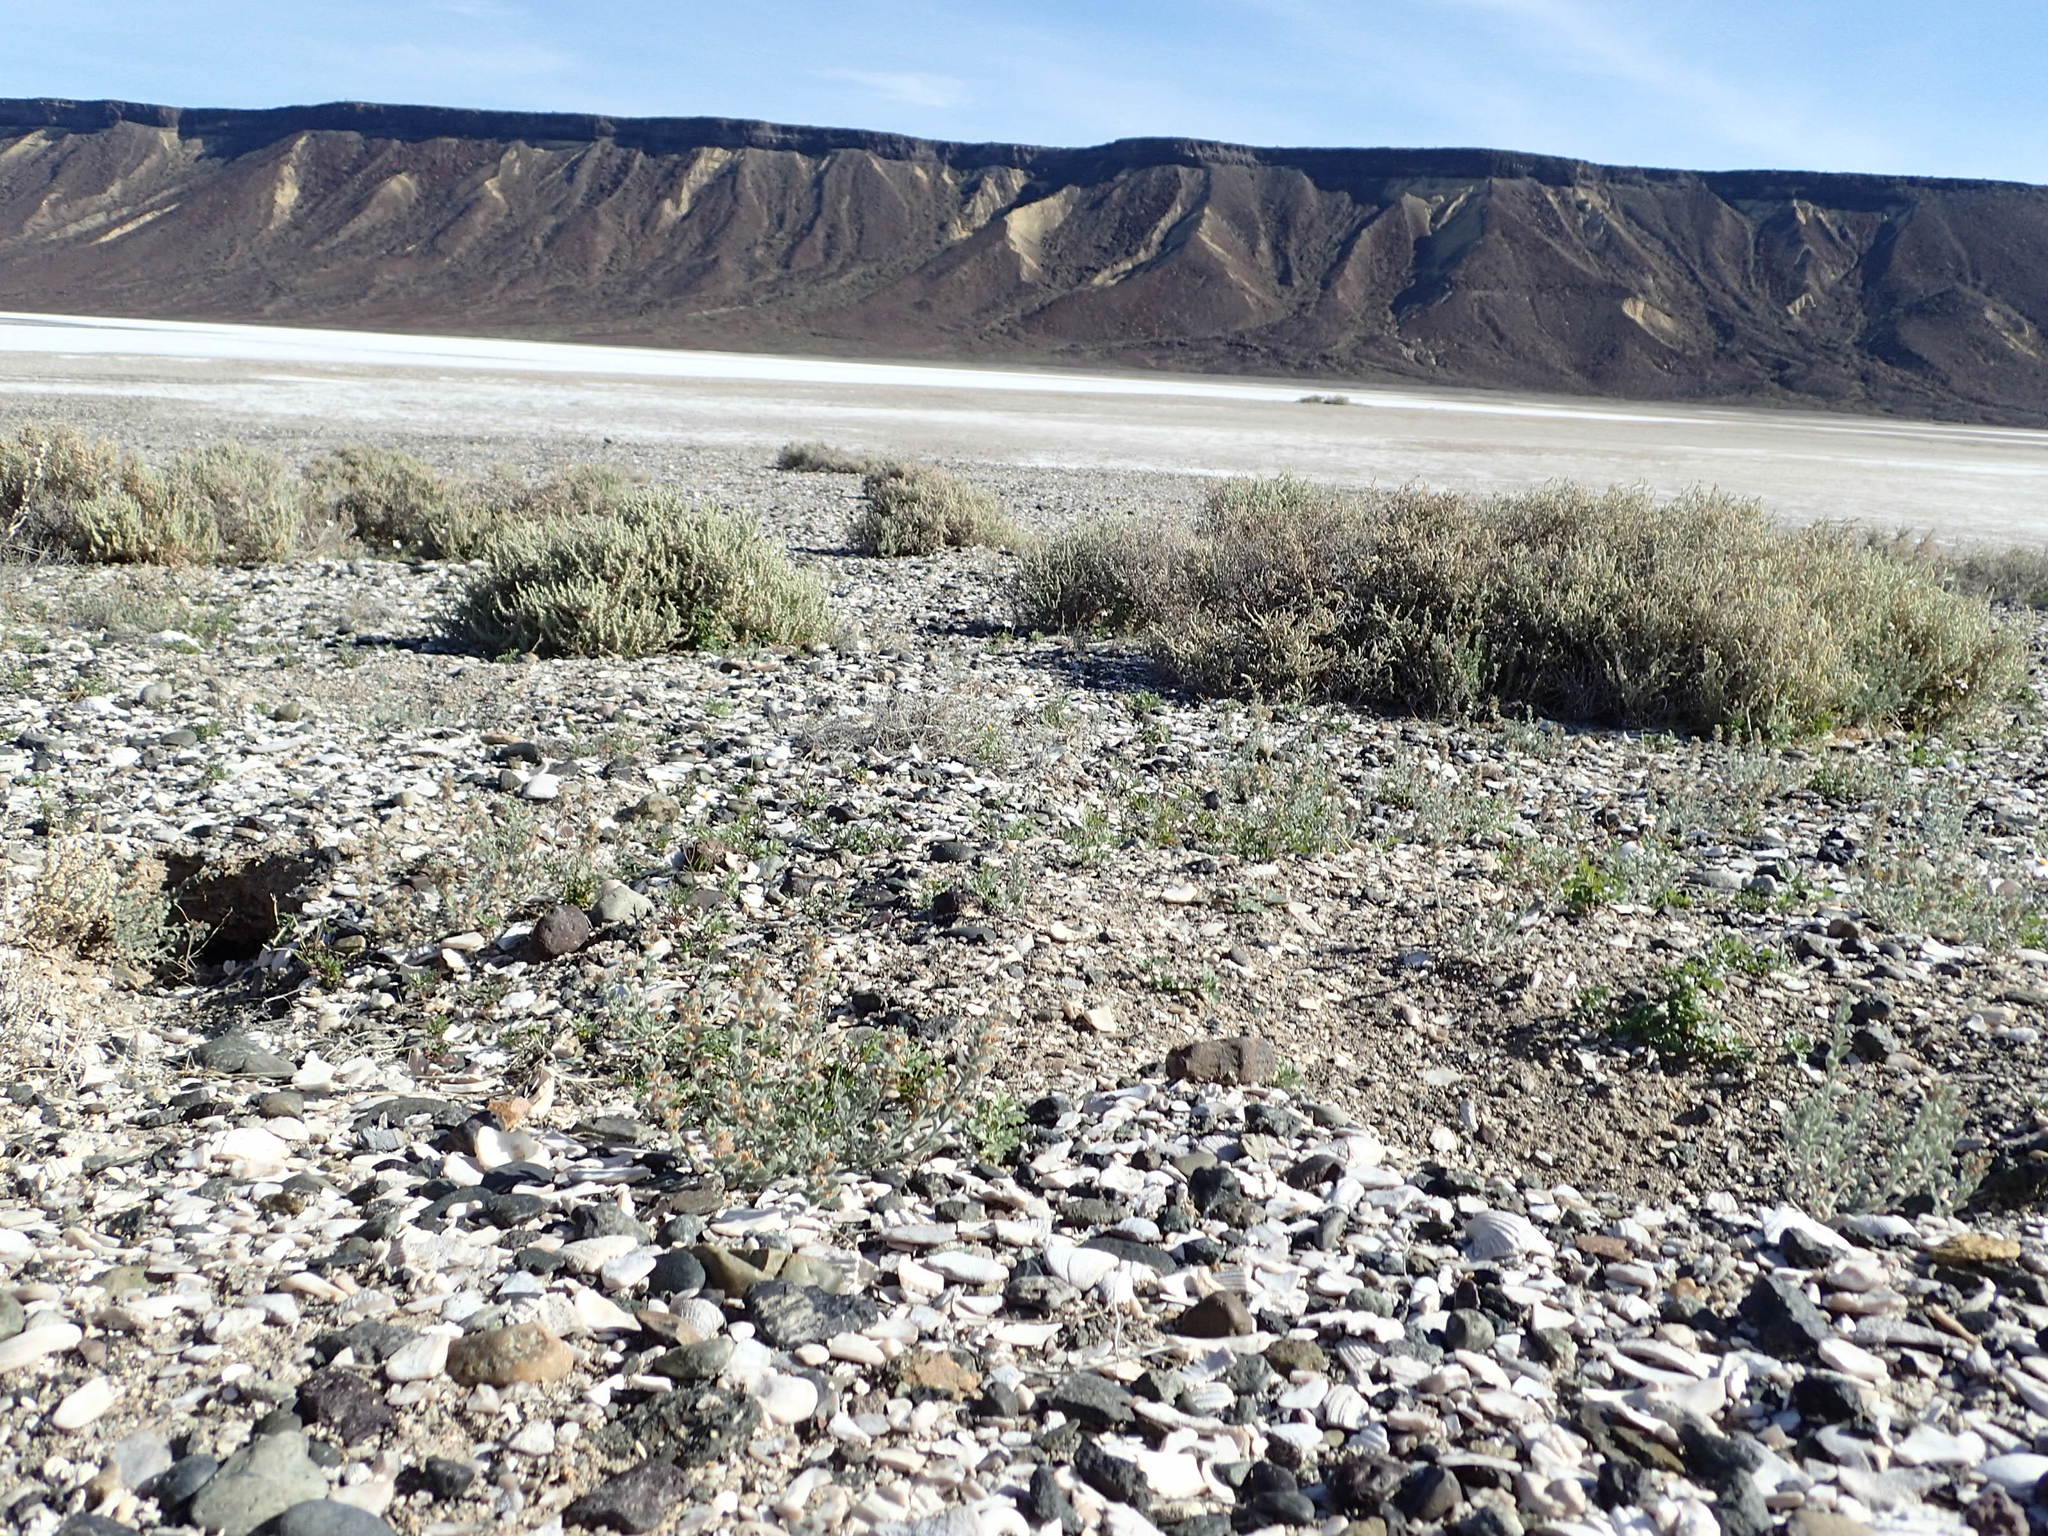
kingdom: Plantae
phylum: Tracheophyta
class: Magnoliopsida
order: Solanales
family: Convolvulaceae
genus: Cressa
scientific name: Cressa truxillensis
